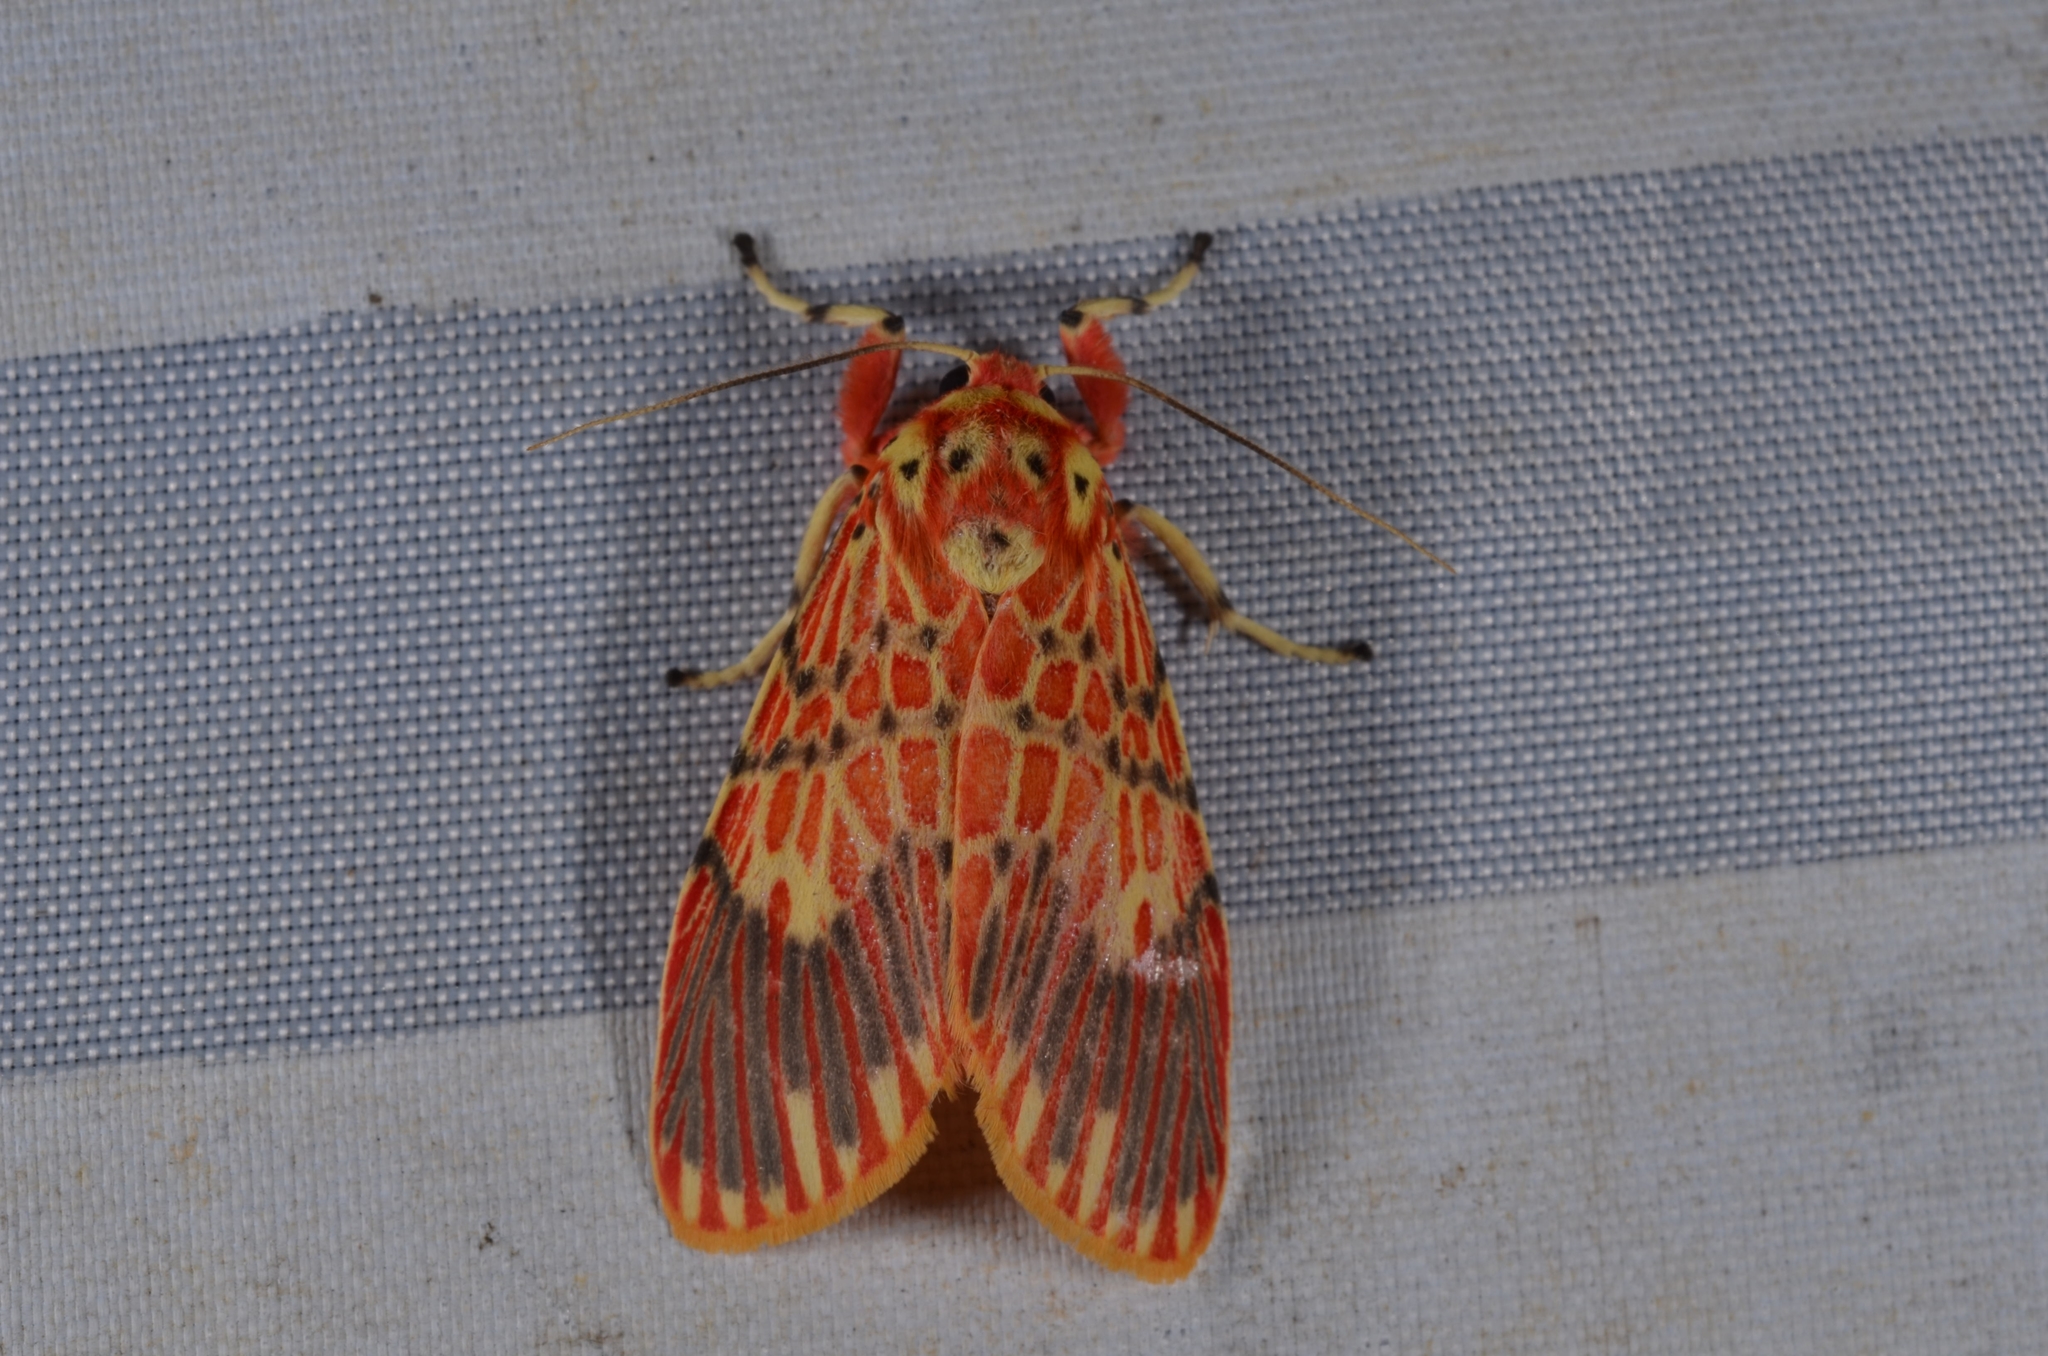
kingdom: Animalia
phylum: Arthropoda
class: Insecta
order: Lepidoptera
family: Erebidae
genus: Barsine
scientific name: Barsine fossi
